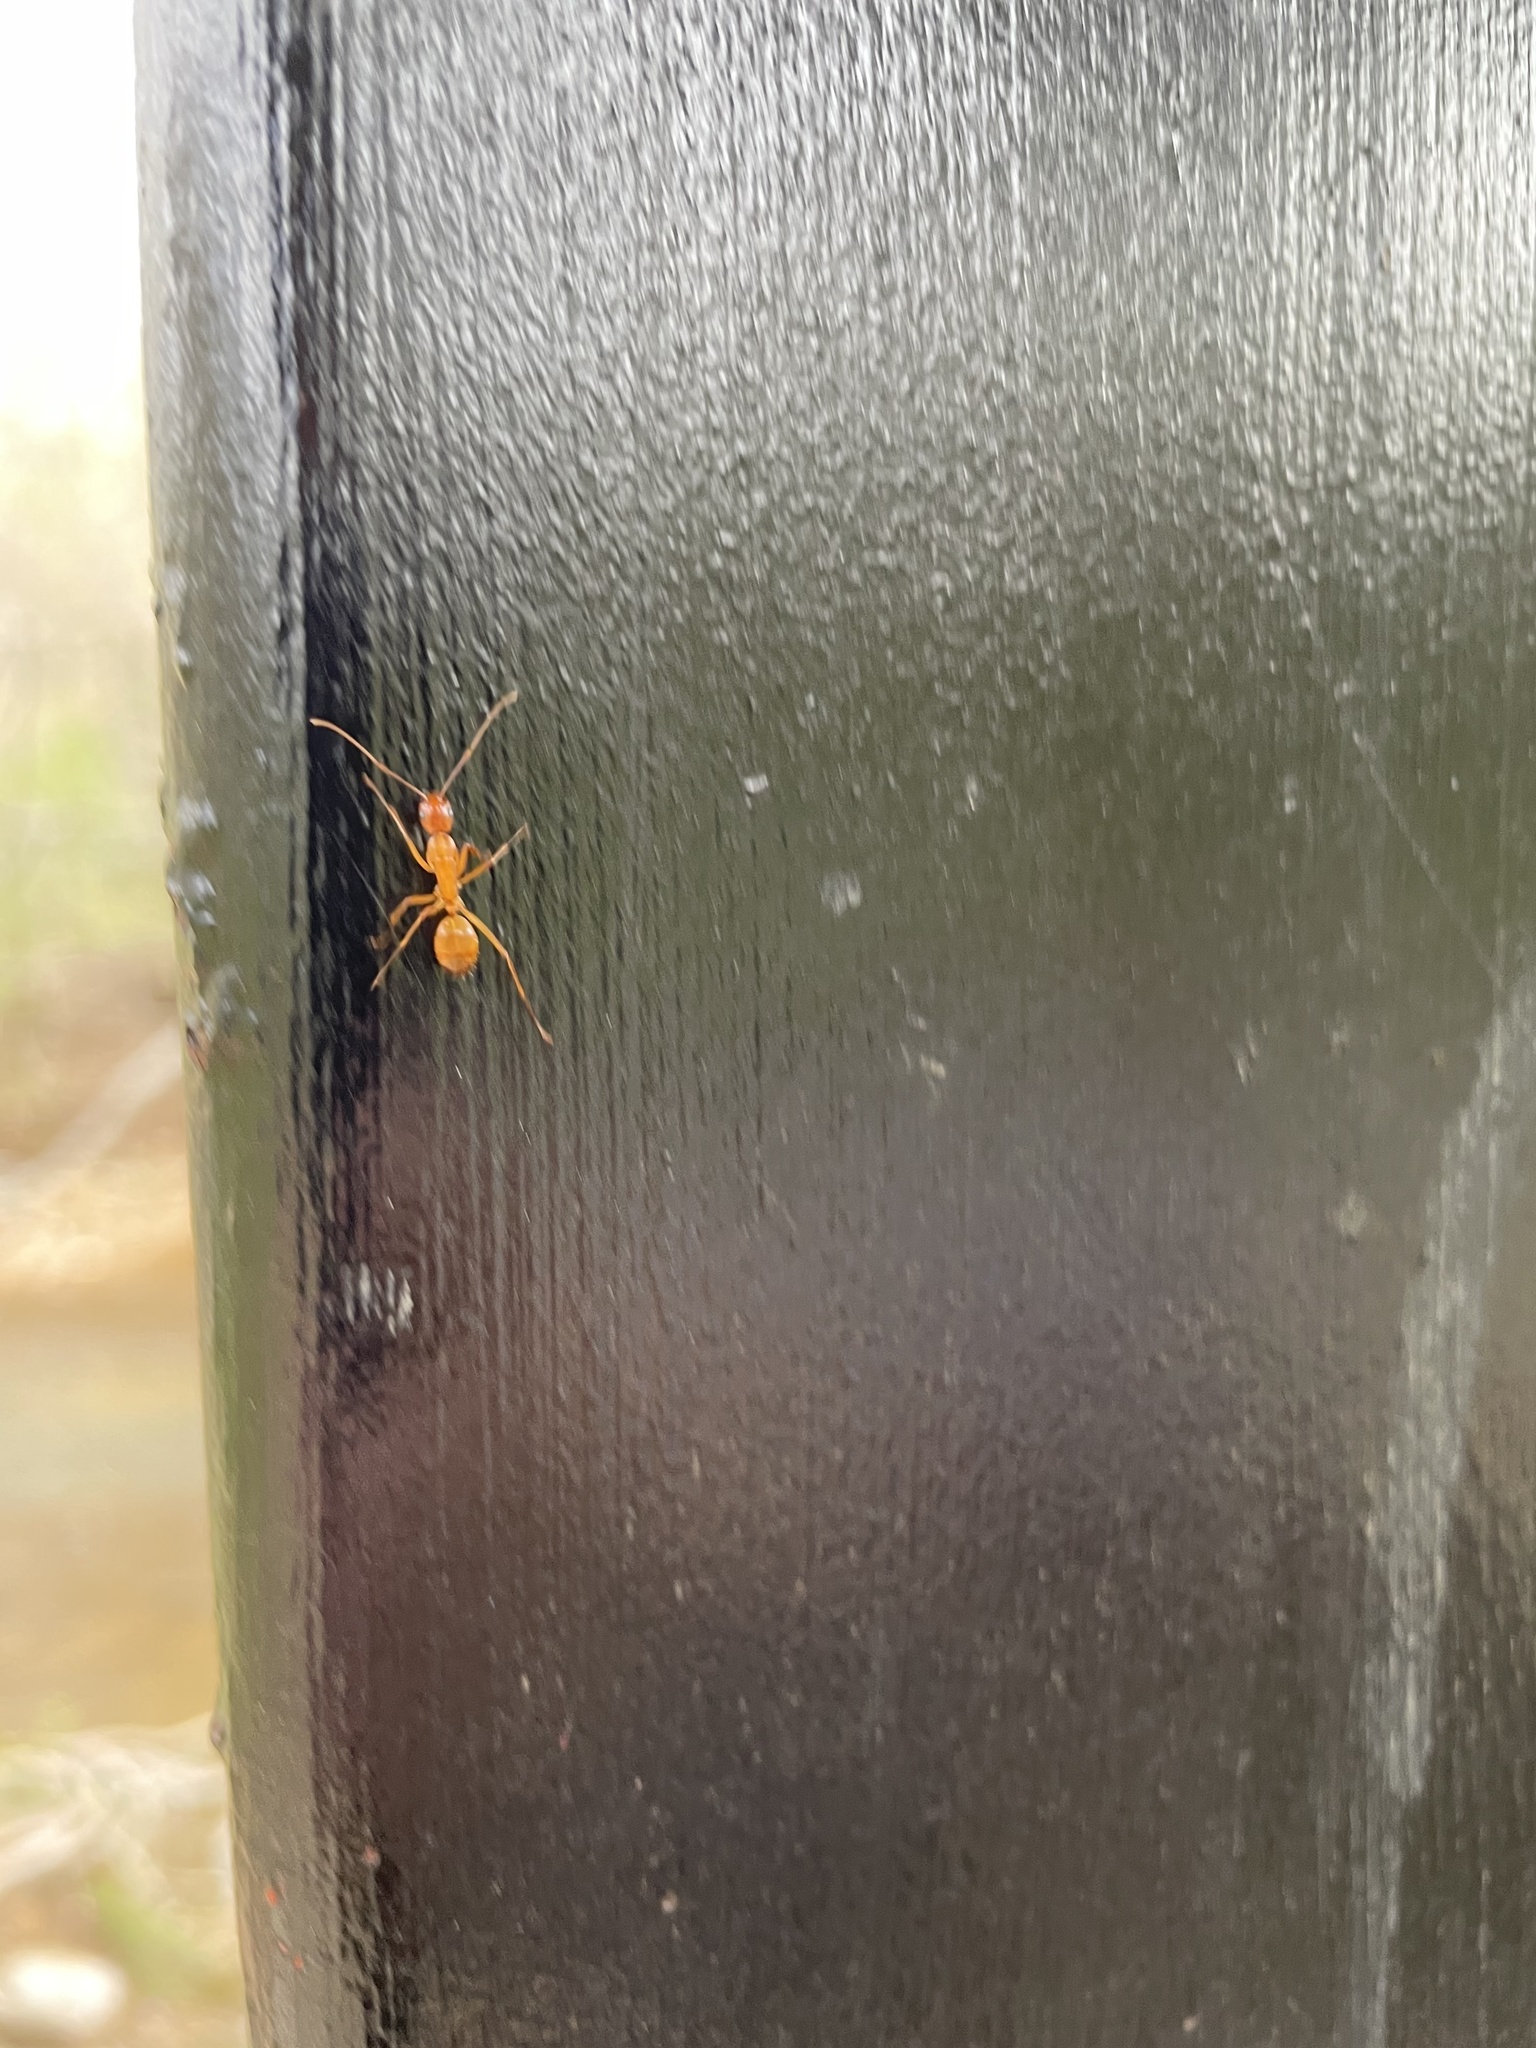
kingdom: Animalia
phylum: Arthropoda
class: Insecta
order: Hymenoptera
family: Formicidae
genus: Camponotus
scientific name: Camponotus castaneus
